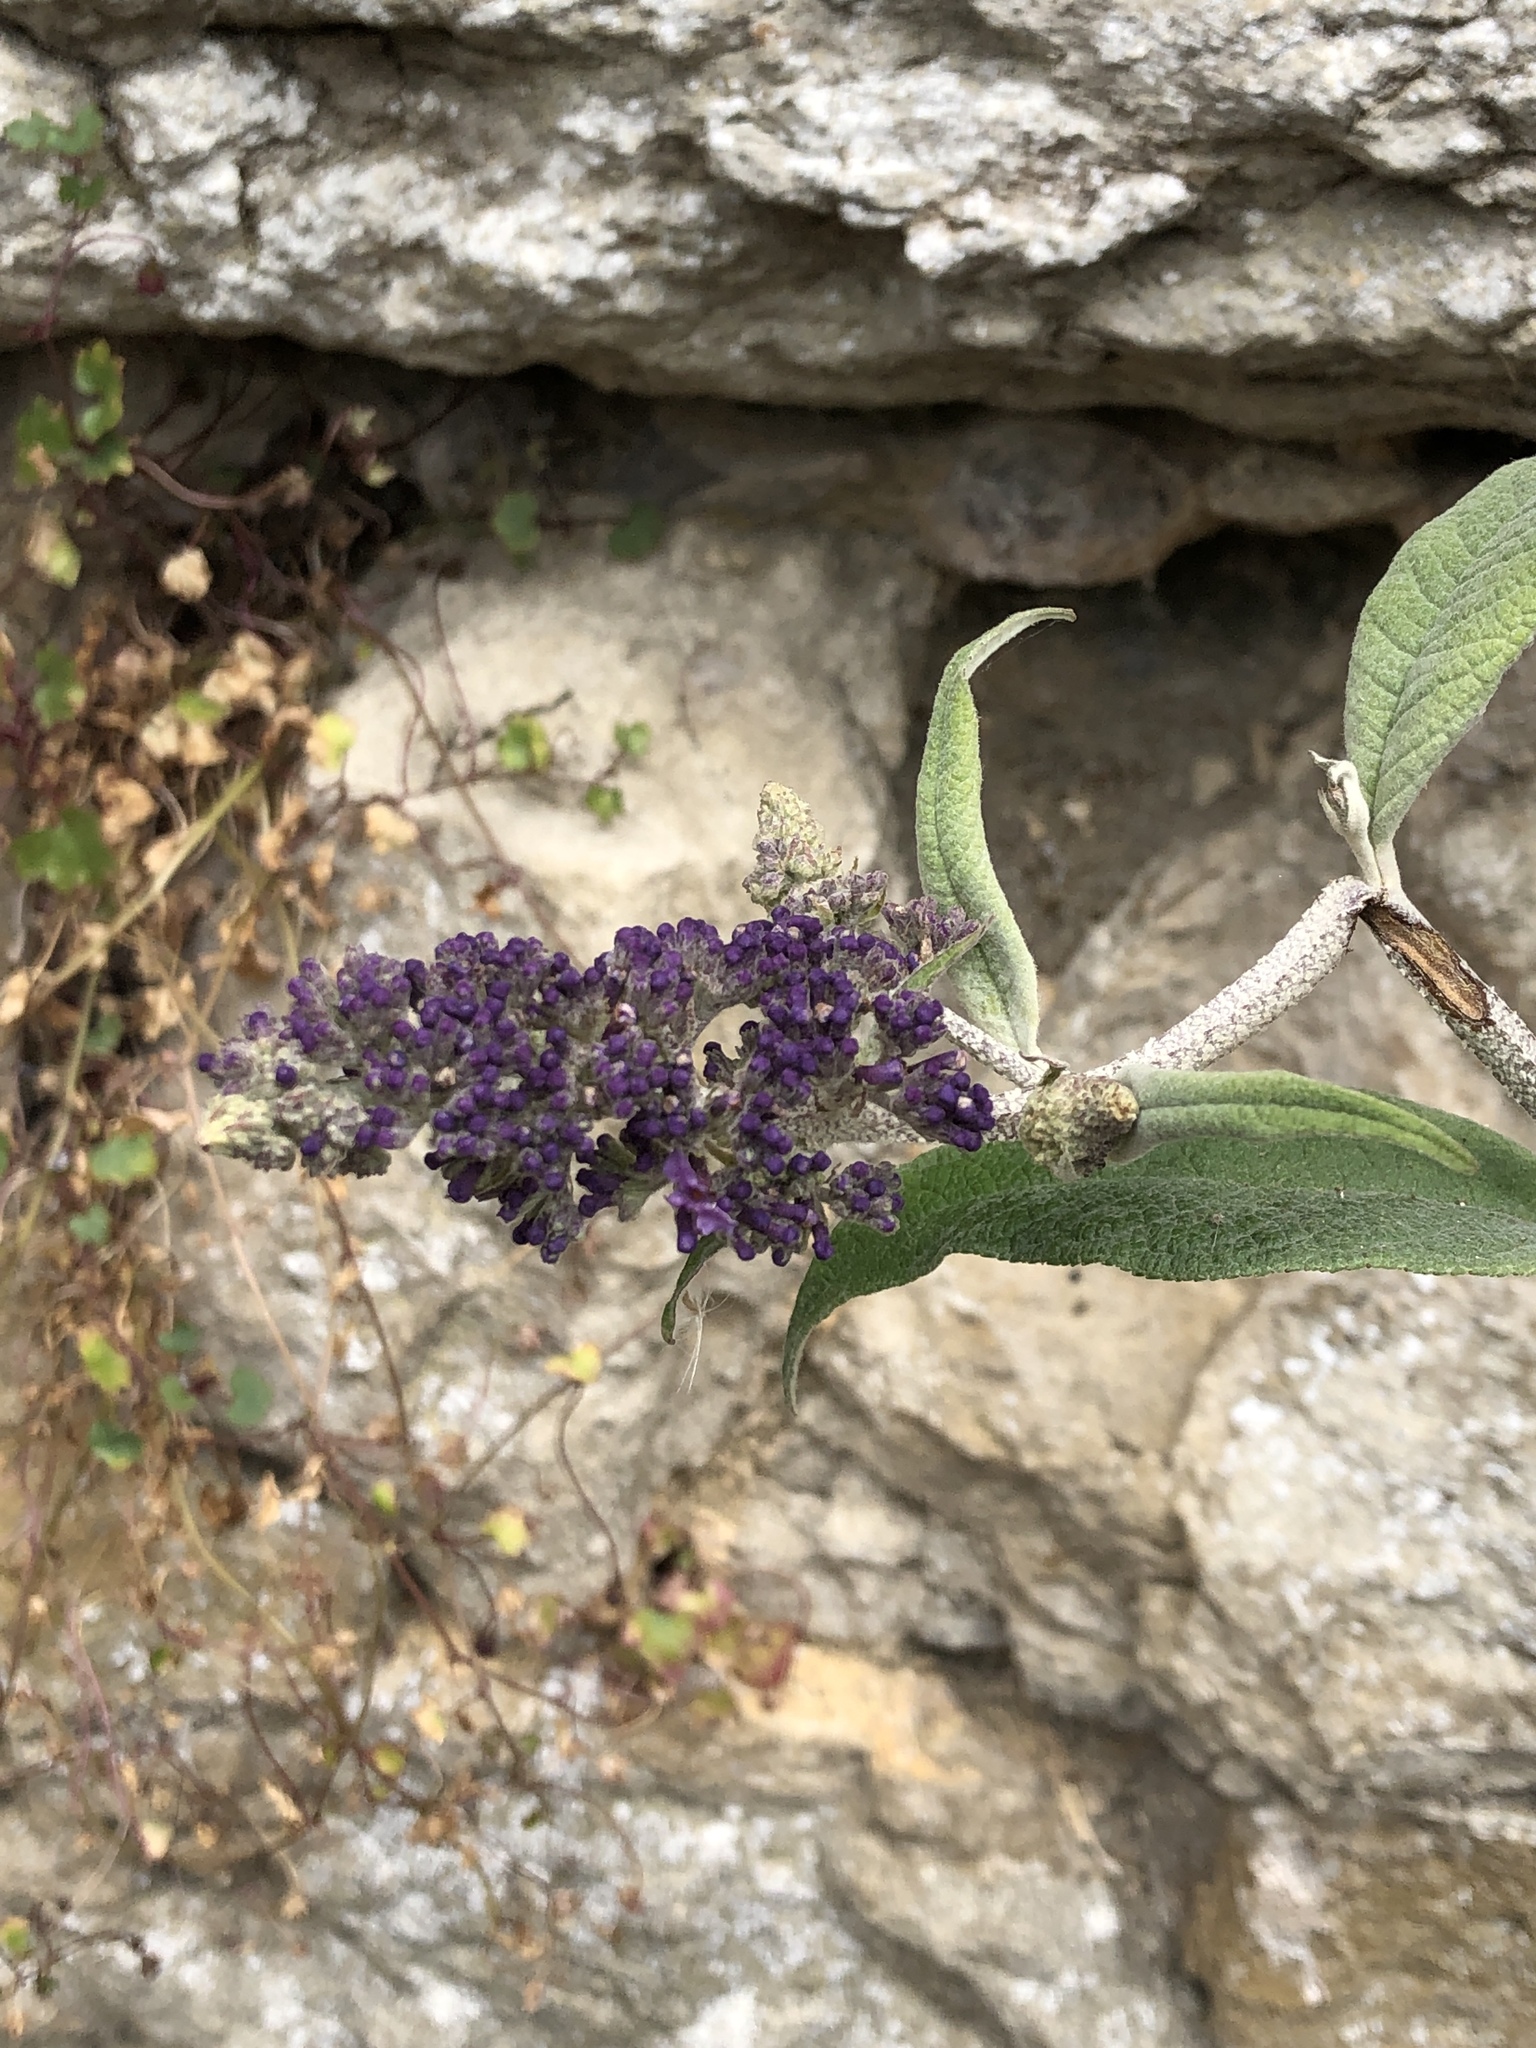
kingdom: Plantae
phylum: Tracheophyta
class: Magnoliopsida
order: Lamiales
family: Scrophulariaceae
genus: Buddleja
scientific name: Buddleja davidii
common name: Butterfly-bush
